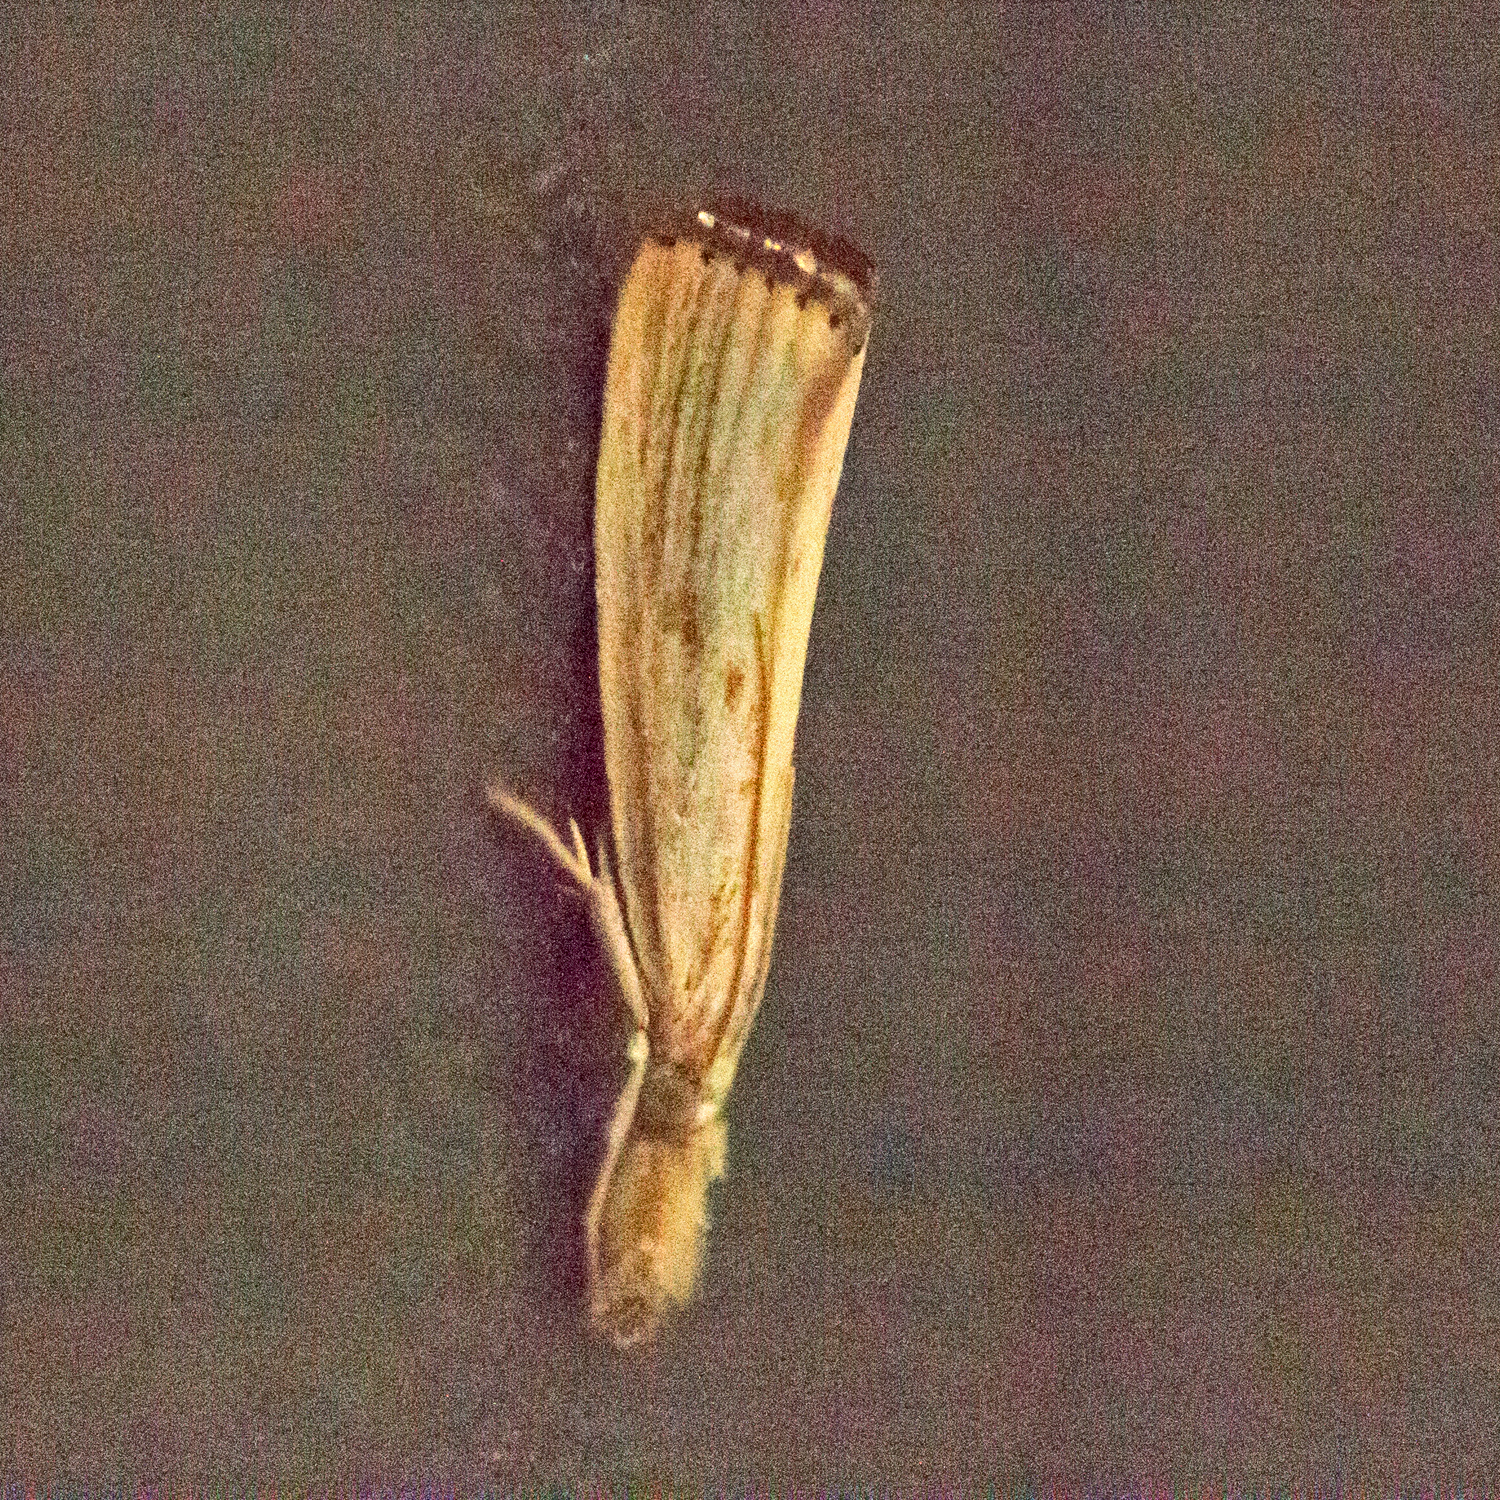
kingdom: Animalia
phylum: Arthropoda
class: Insecta
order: Lepidoptera
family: Crambidae
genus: Agriphila
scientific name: Agriphila ruricolellus
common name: Lesser vagabond sod webworm
